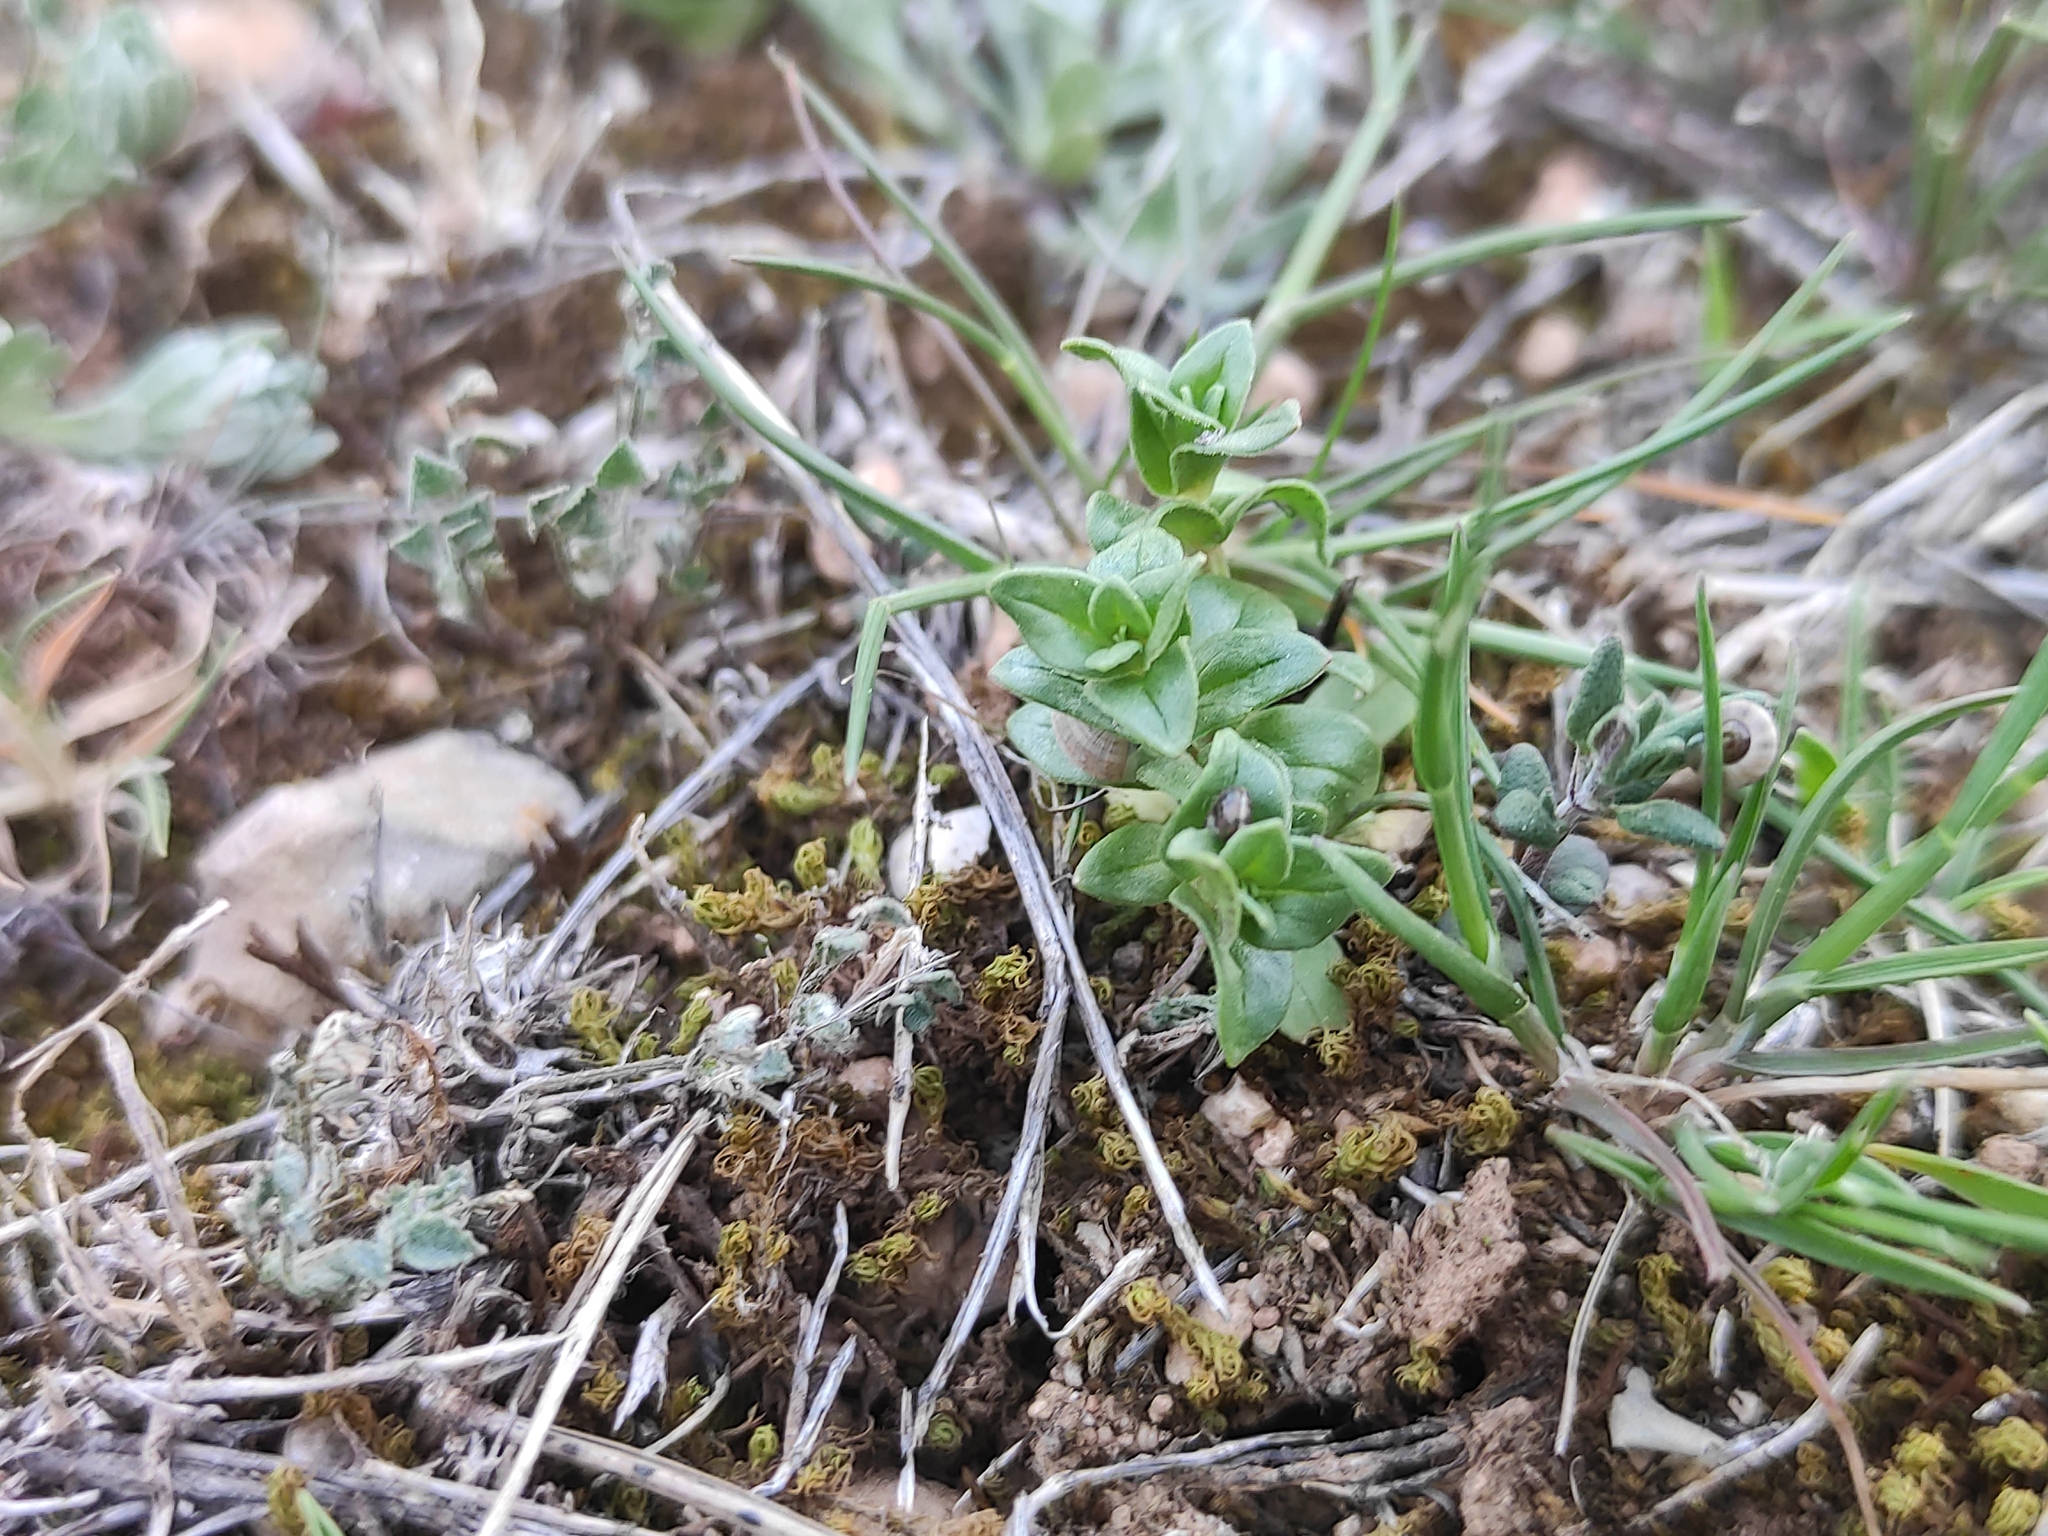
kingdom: Plantae
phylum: Tracheophyta
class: Magnoliopsida
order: Ericales
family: Primulaceae
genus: Lysimachia
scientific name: Lysimachia arvensis
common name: Scarlet pimpernel
